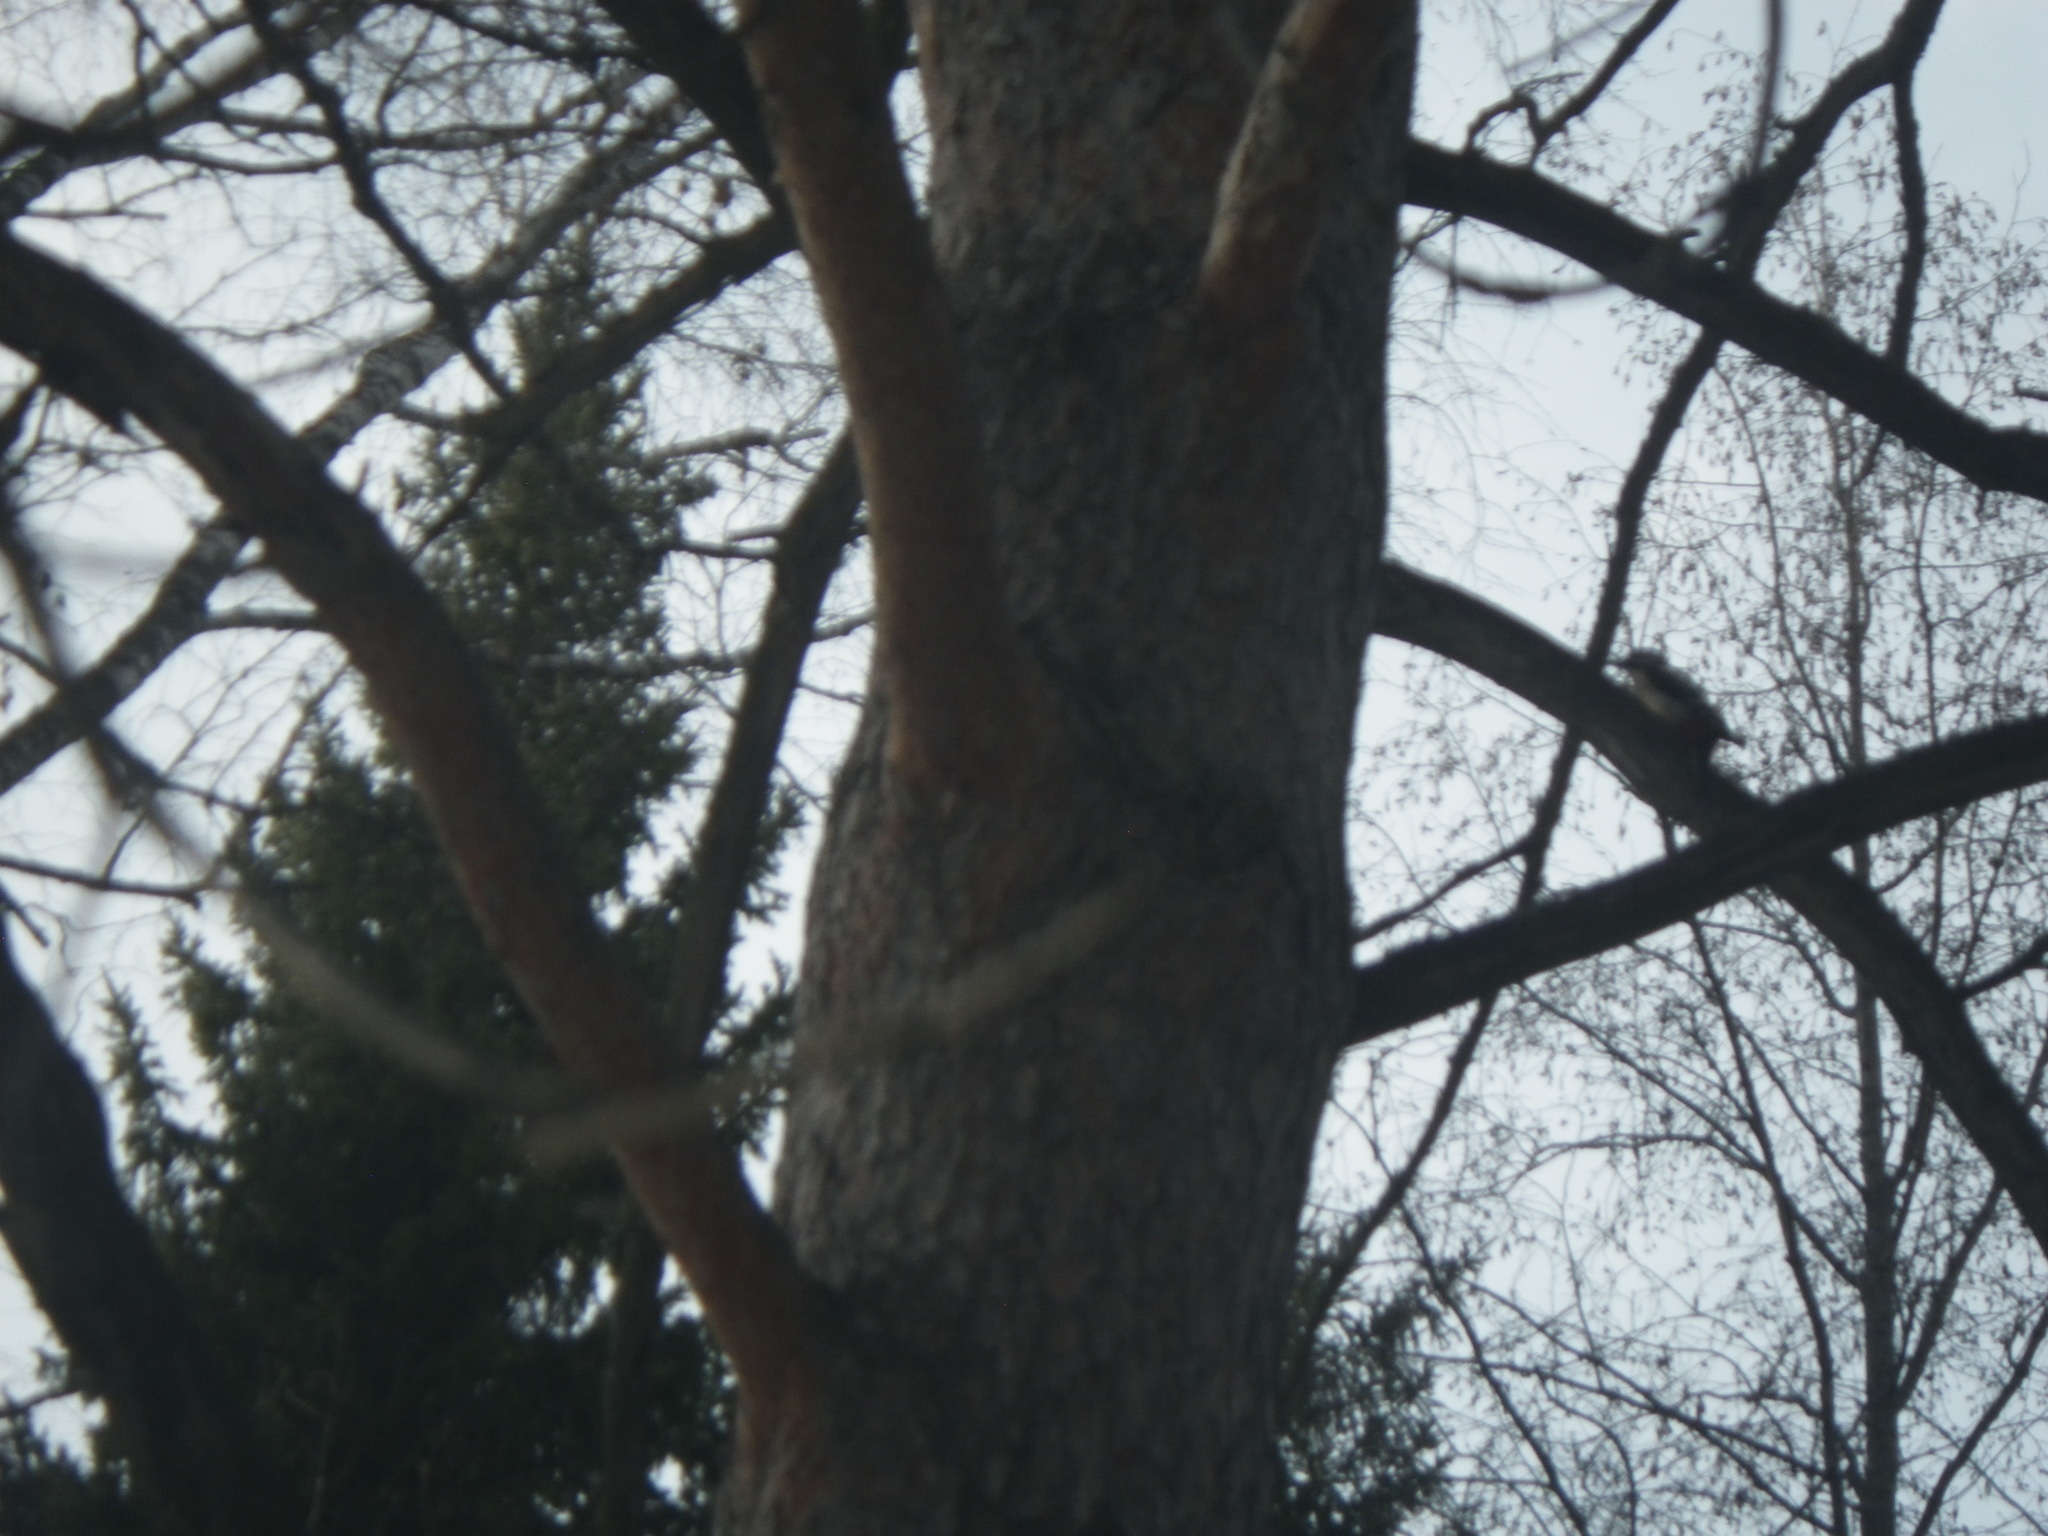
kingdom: Animalia
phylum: Chordata
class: Aves
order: Piciformes
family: Picidae
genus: Dendrocopos
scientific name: Dendrocopos major
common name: Great spotted woodpecker
